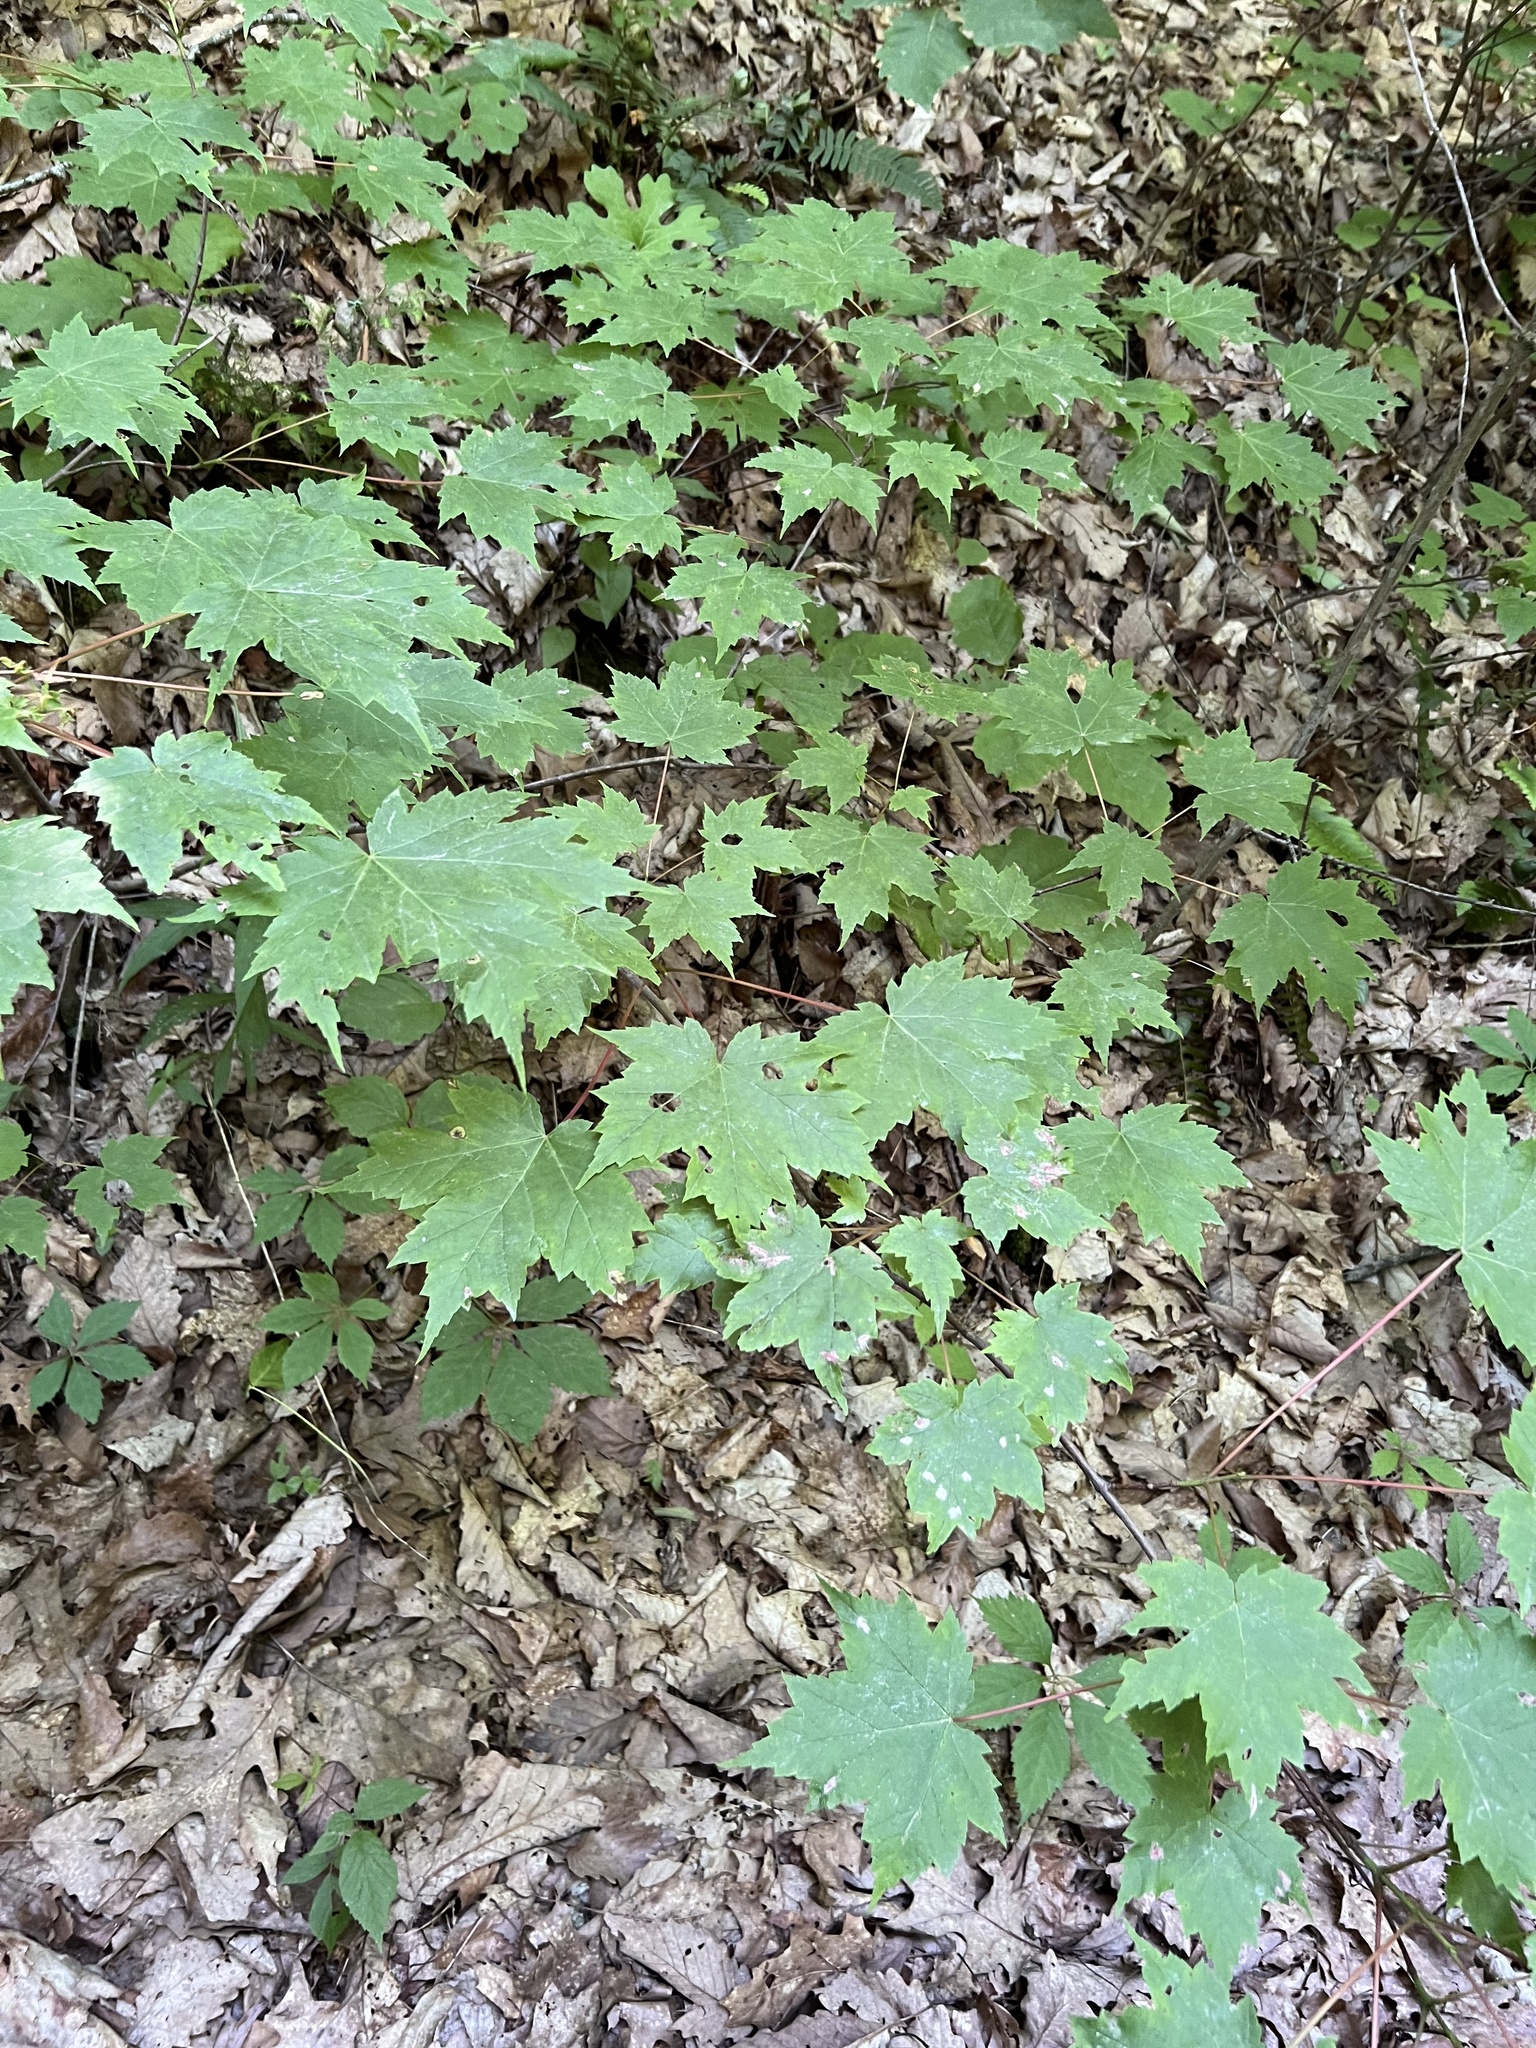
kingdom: Plantae
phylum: Tracheophyta
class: Magnoliopsida
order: Sapindales
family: Sapindaceae
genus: Acer
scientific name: Acer rubrum
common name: Red maple
